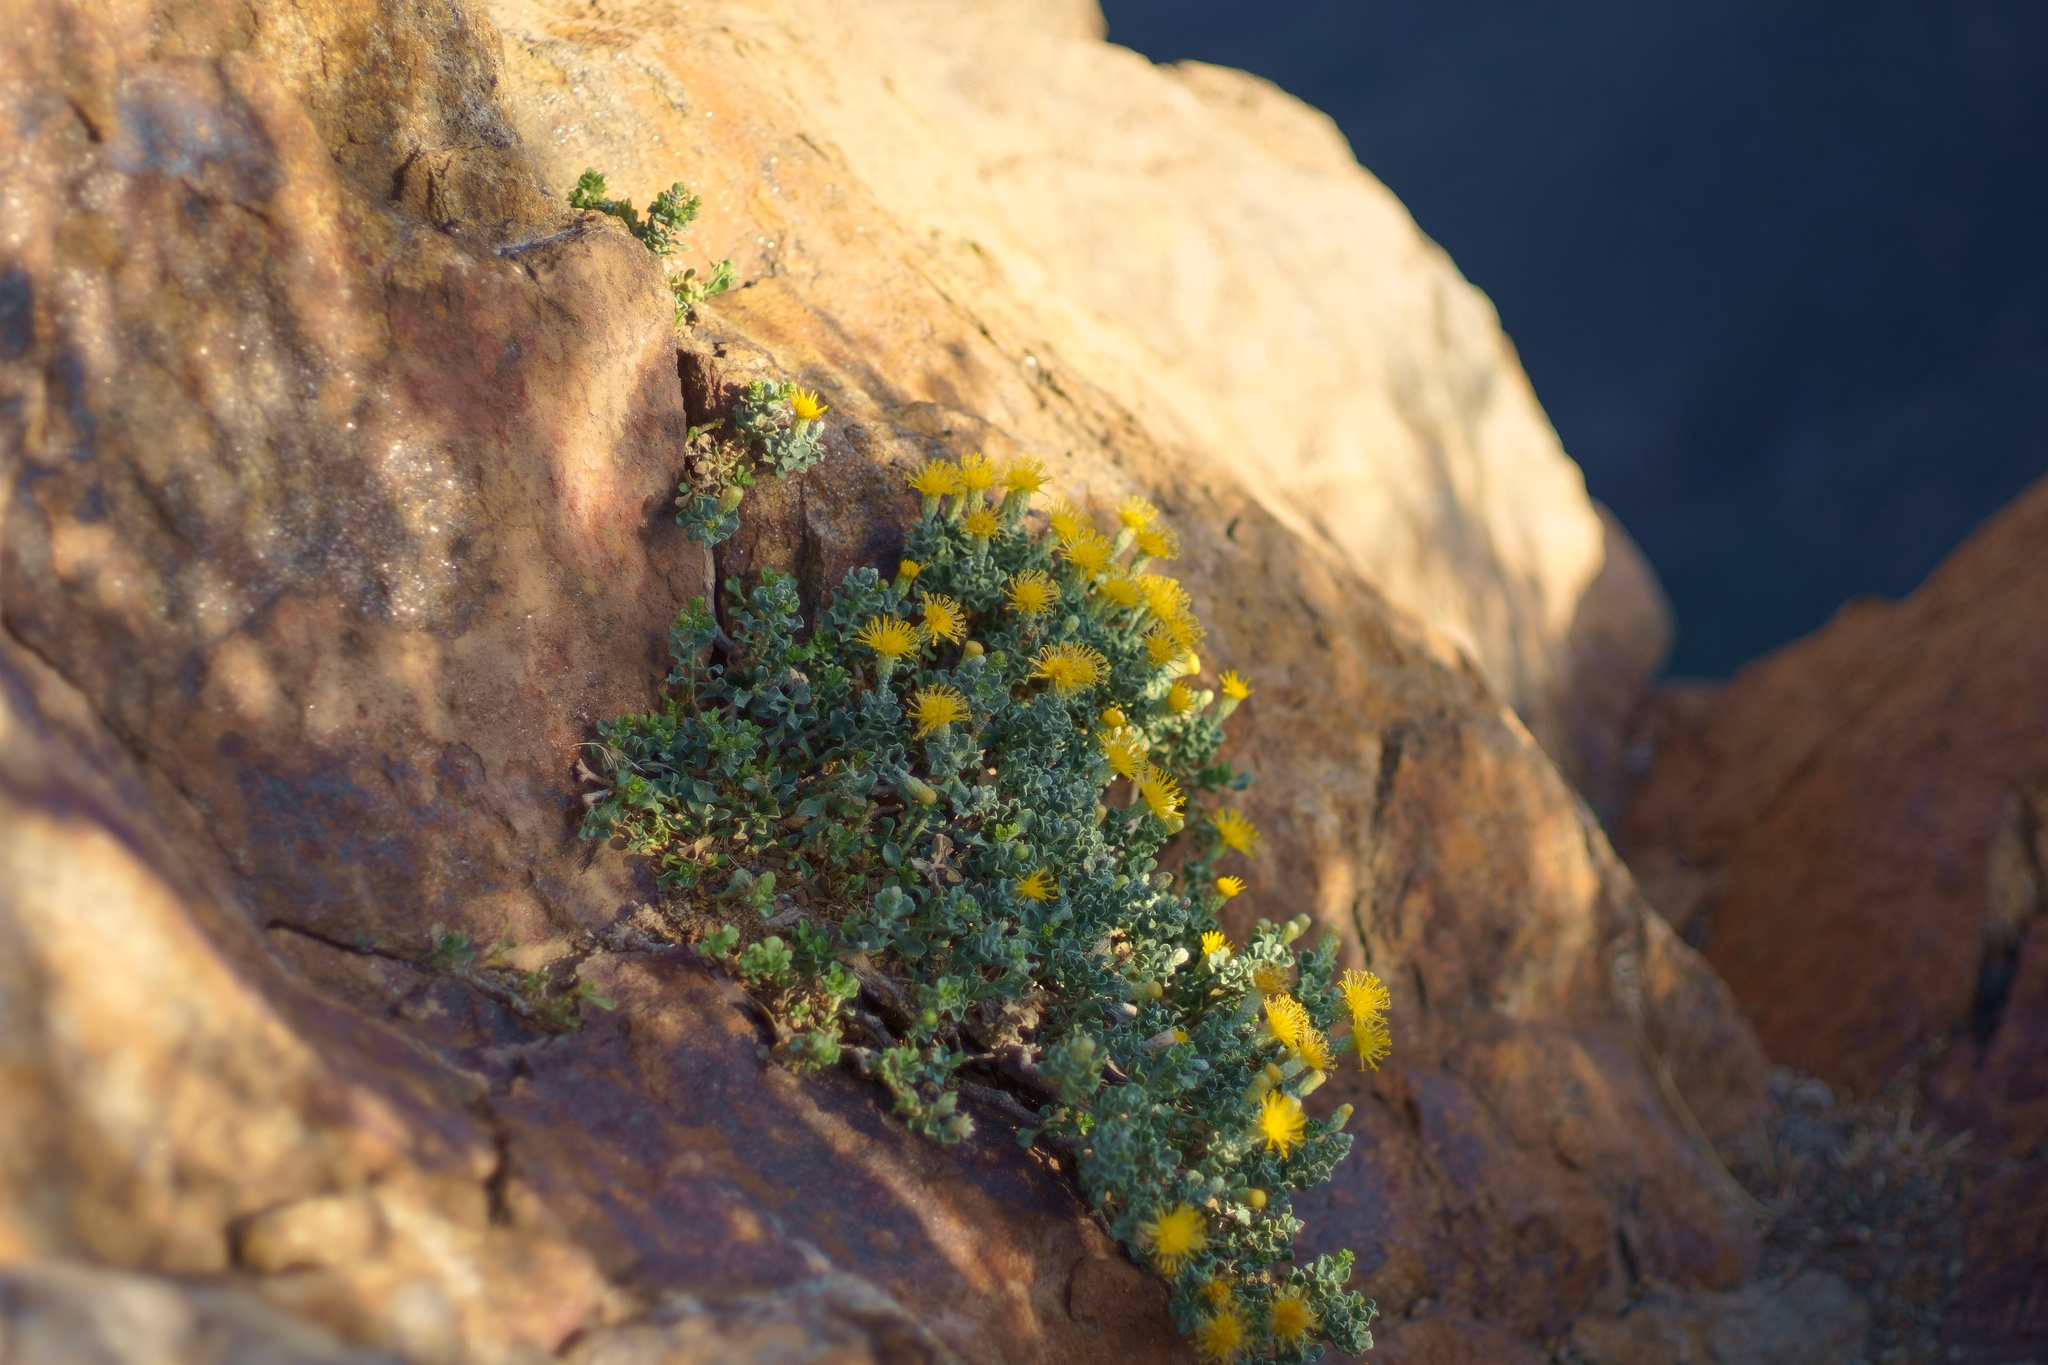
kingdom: Plantae
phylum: Tracheophyta
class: Magnoliopsida
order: Asterales
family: Asteraceae
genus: Ericameria
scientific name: Ericameria cuneata
